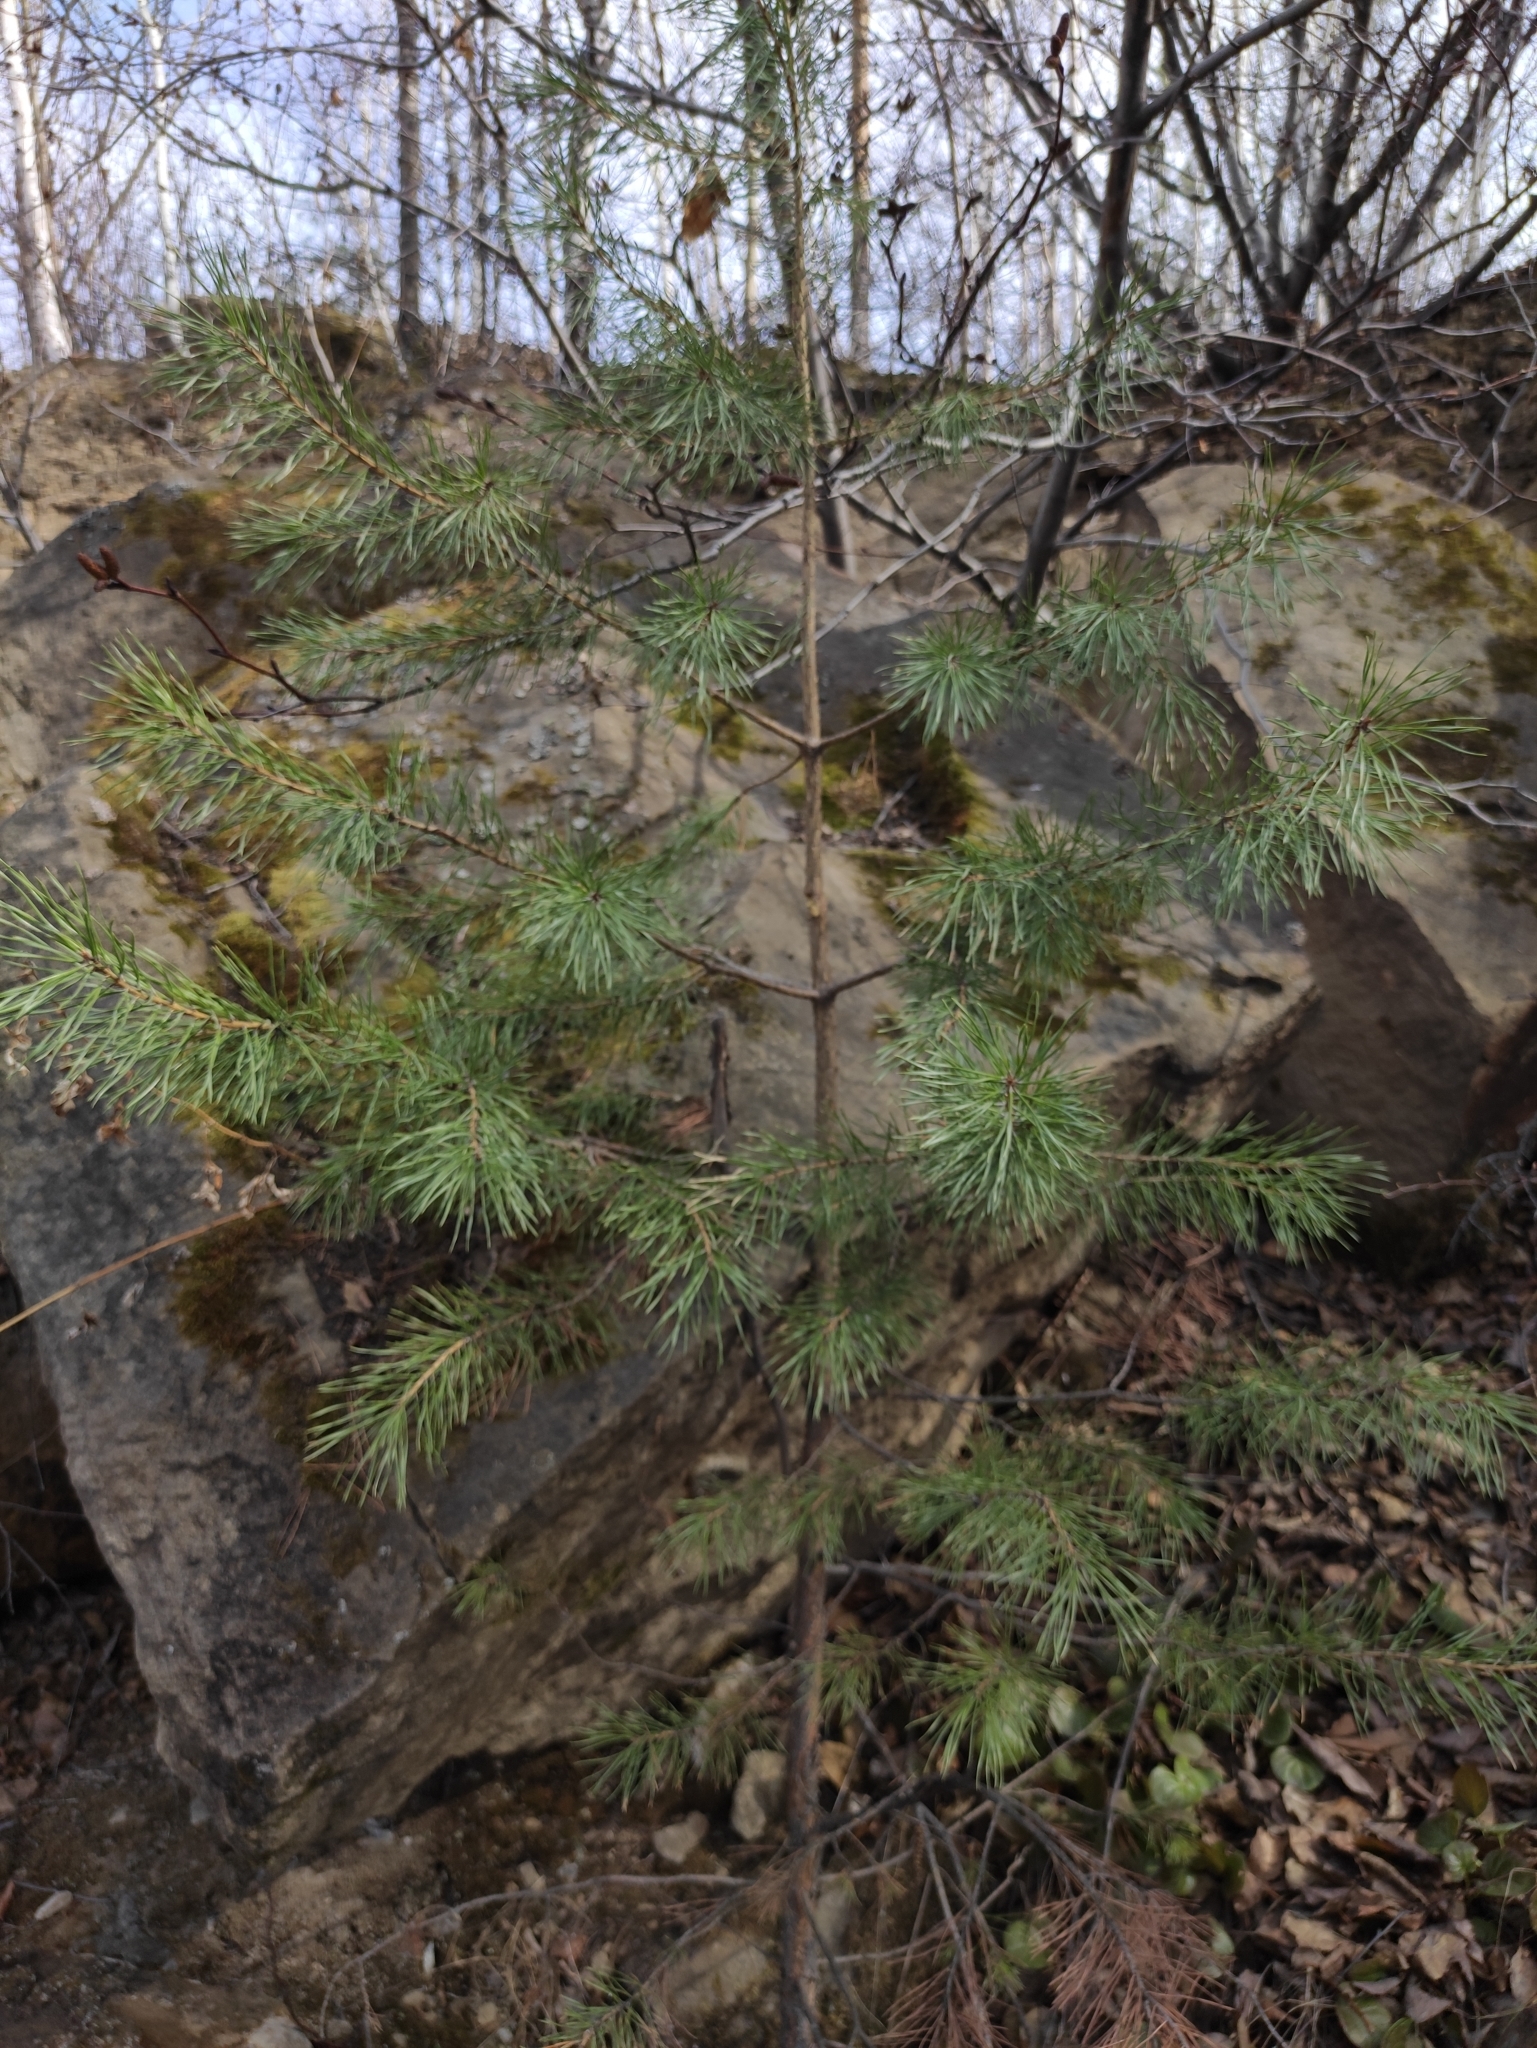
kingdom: Plantae
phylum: Tracheophyta
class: Pinopsida
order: Pinales
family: Pinaceae
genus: Pinus
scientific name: Pinus sylvestris
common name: Scots pine
